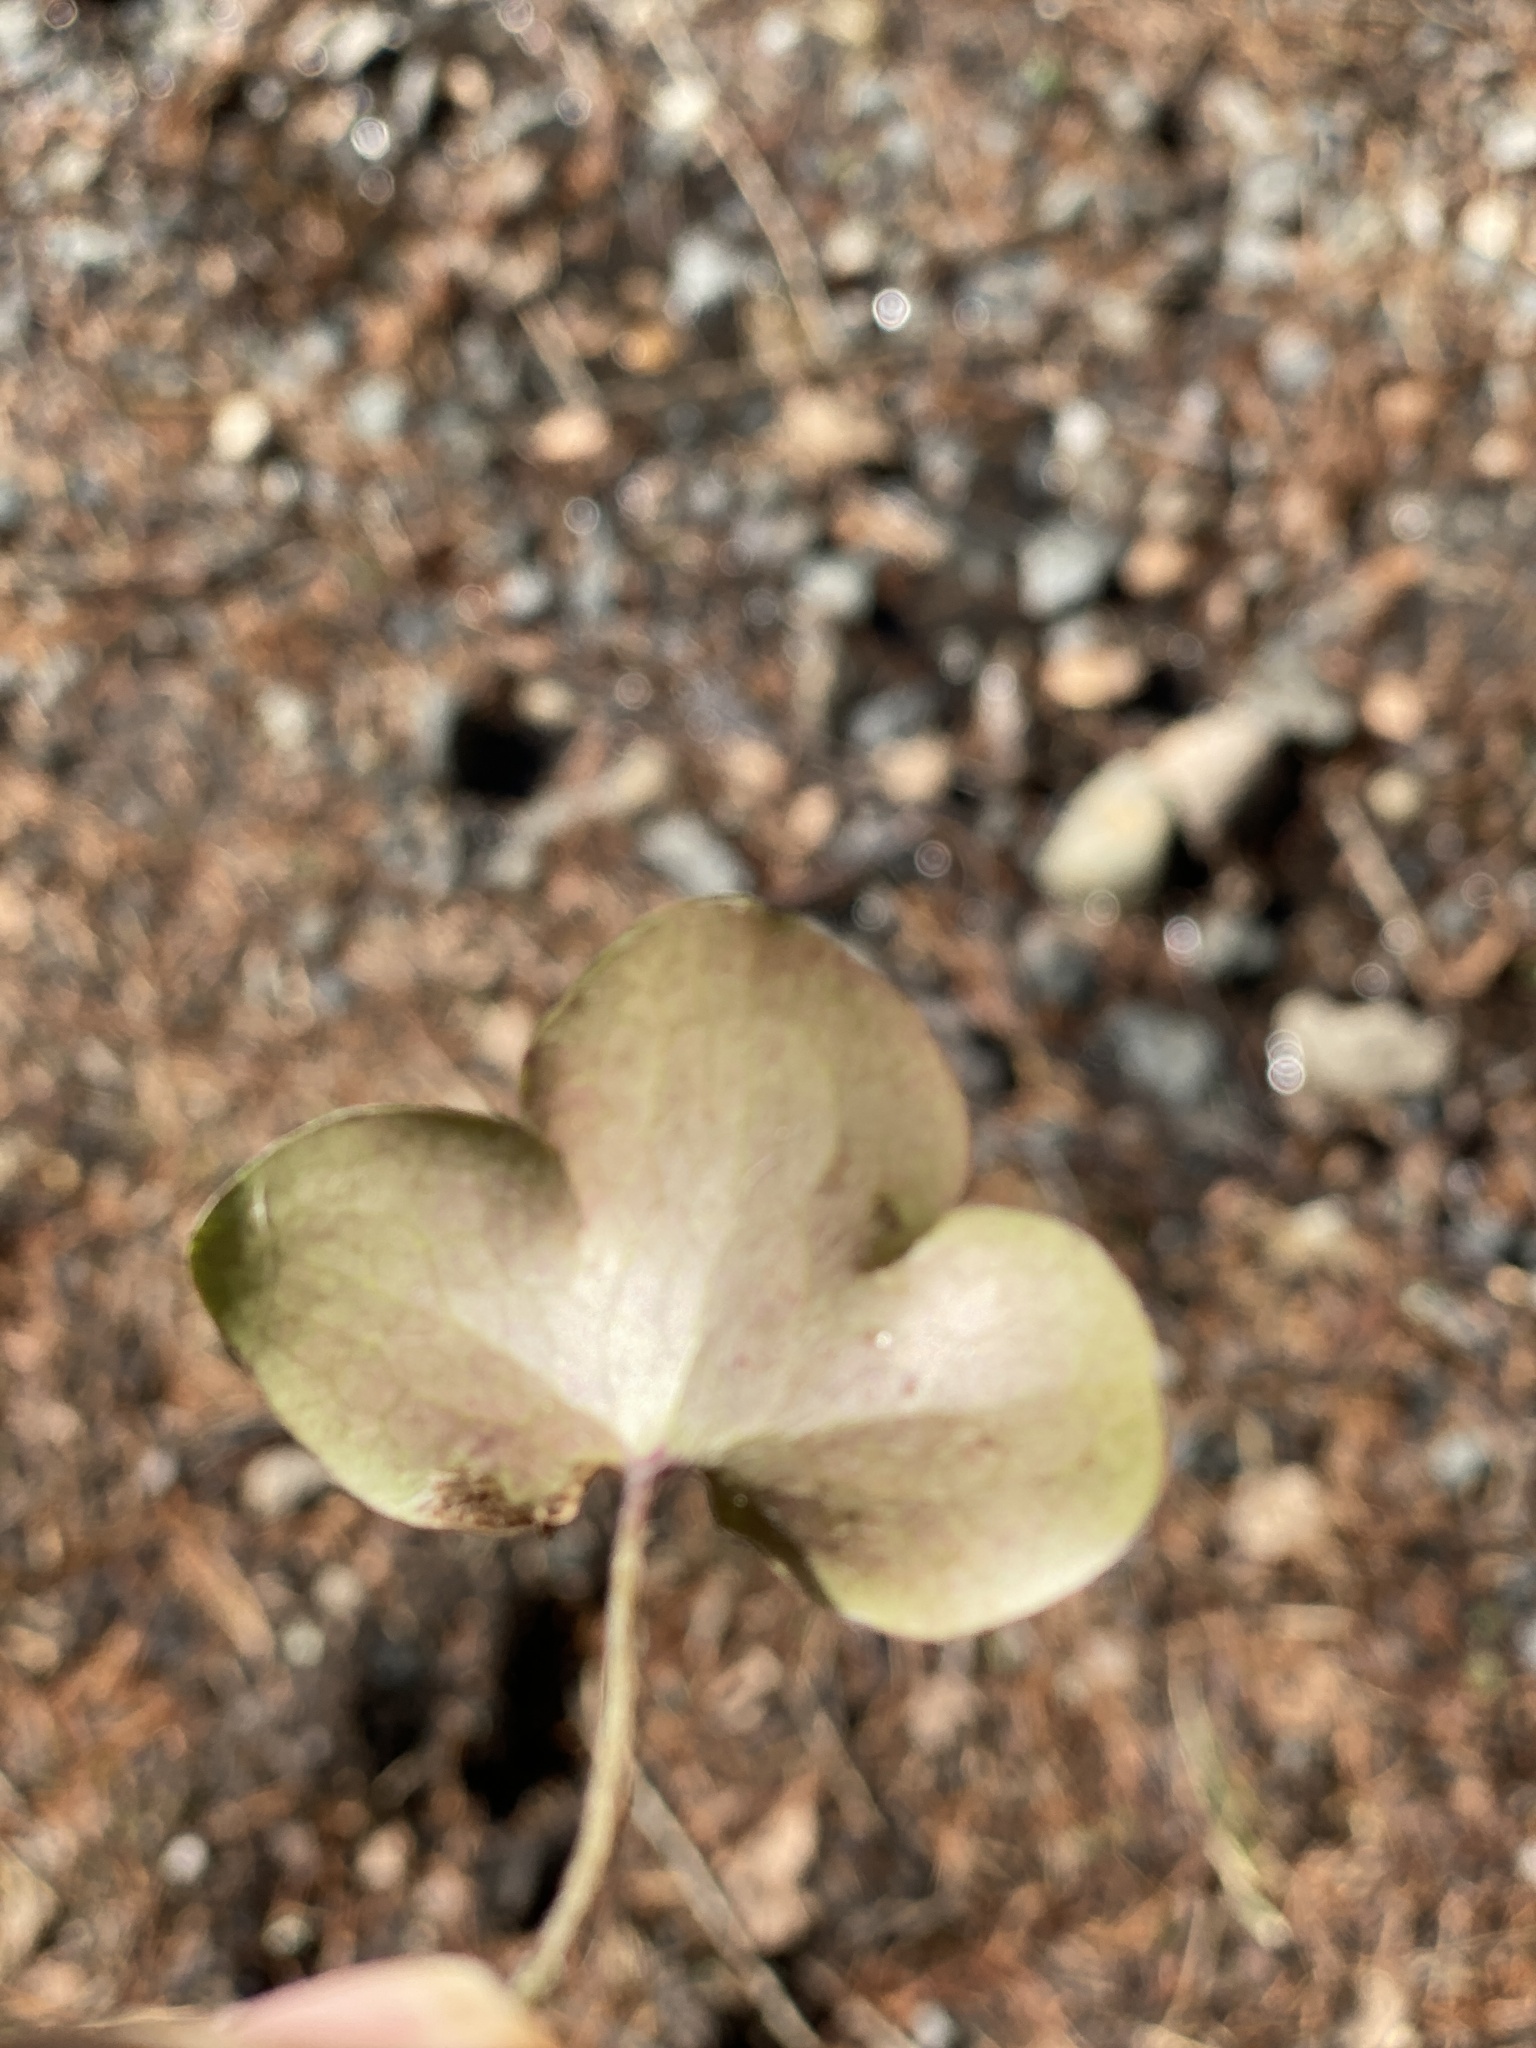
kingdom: Plantae
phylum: Tracheophyta
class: Magnoliopsida
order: Ranunculales
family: Ranunculaceae
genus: Hepatica
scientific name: Hepatica nobilis
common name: Liverleaf
